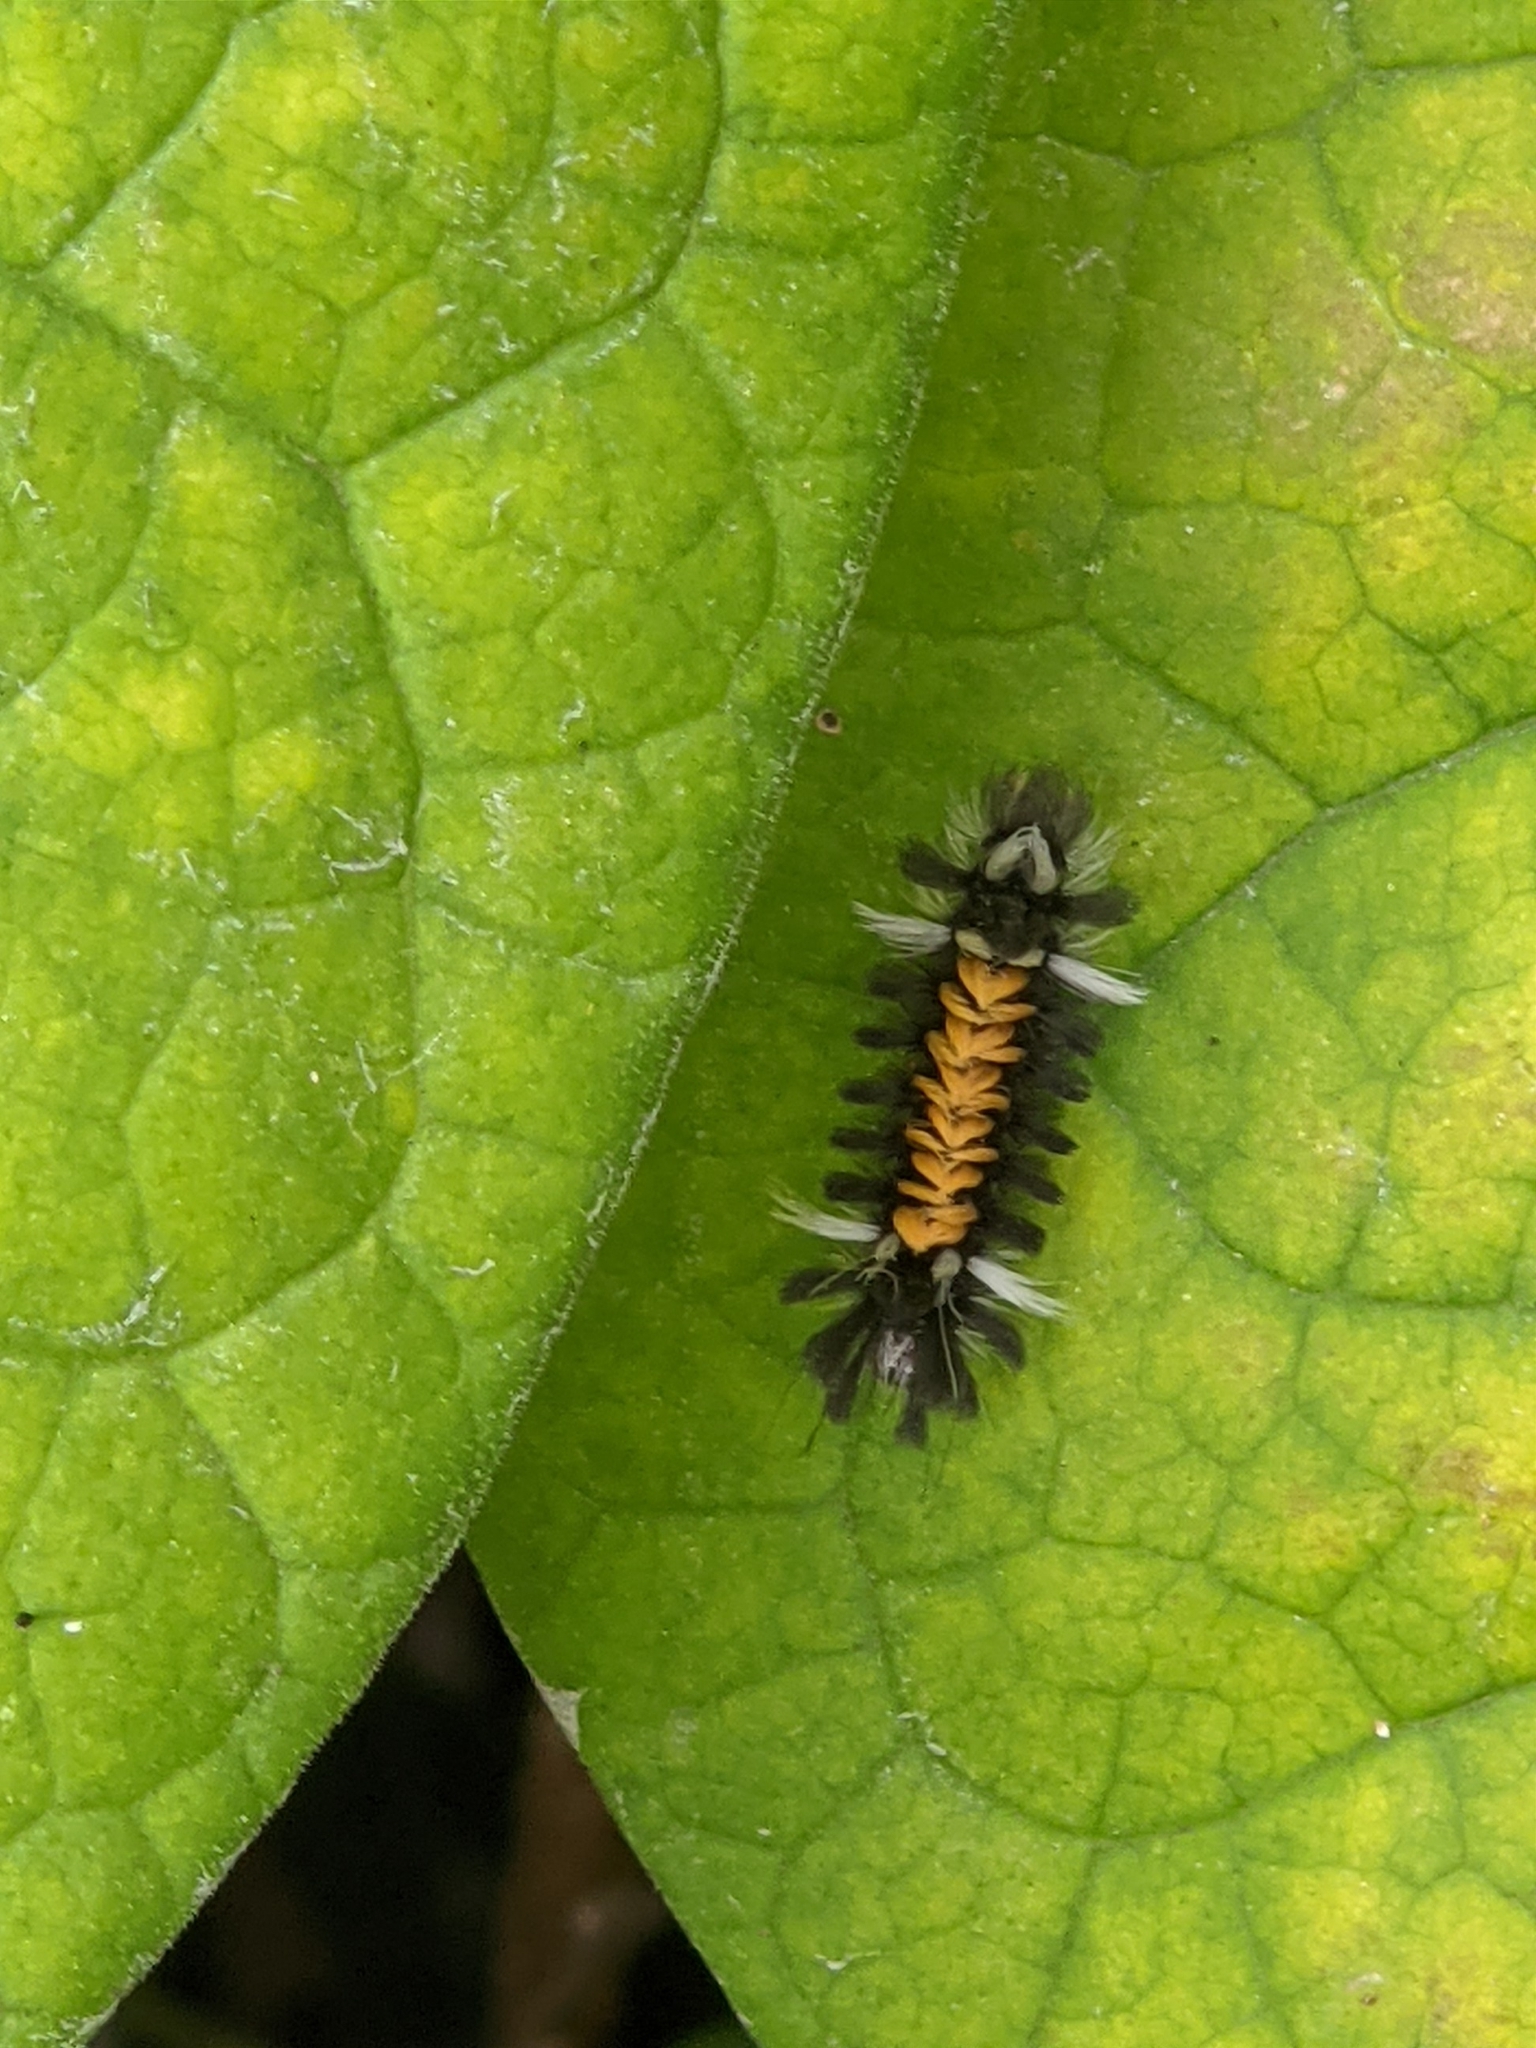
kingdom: Animalia
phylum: Arthropoda
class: Insecta
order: Lepidoptera
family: Erebidae
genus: Euchaetes
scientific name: Euchaetes egle
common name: Milkweed tussock moth
